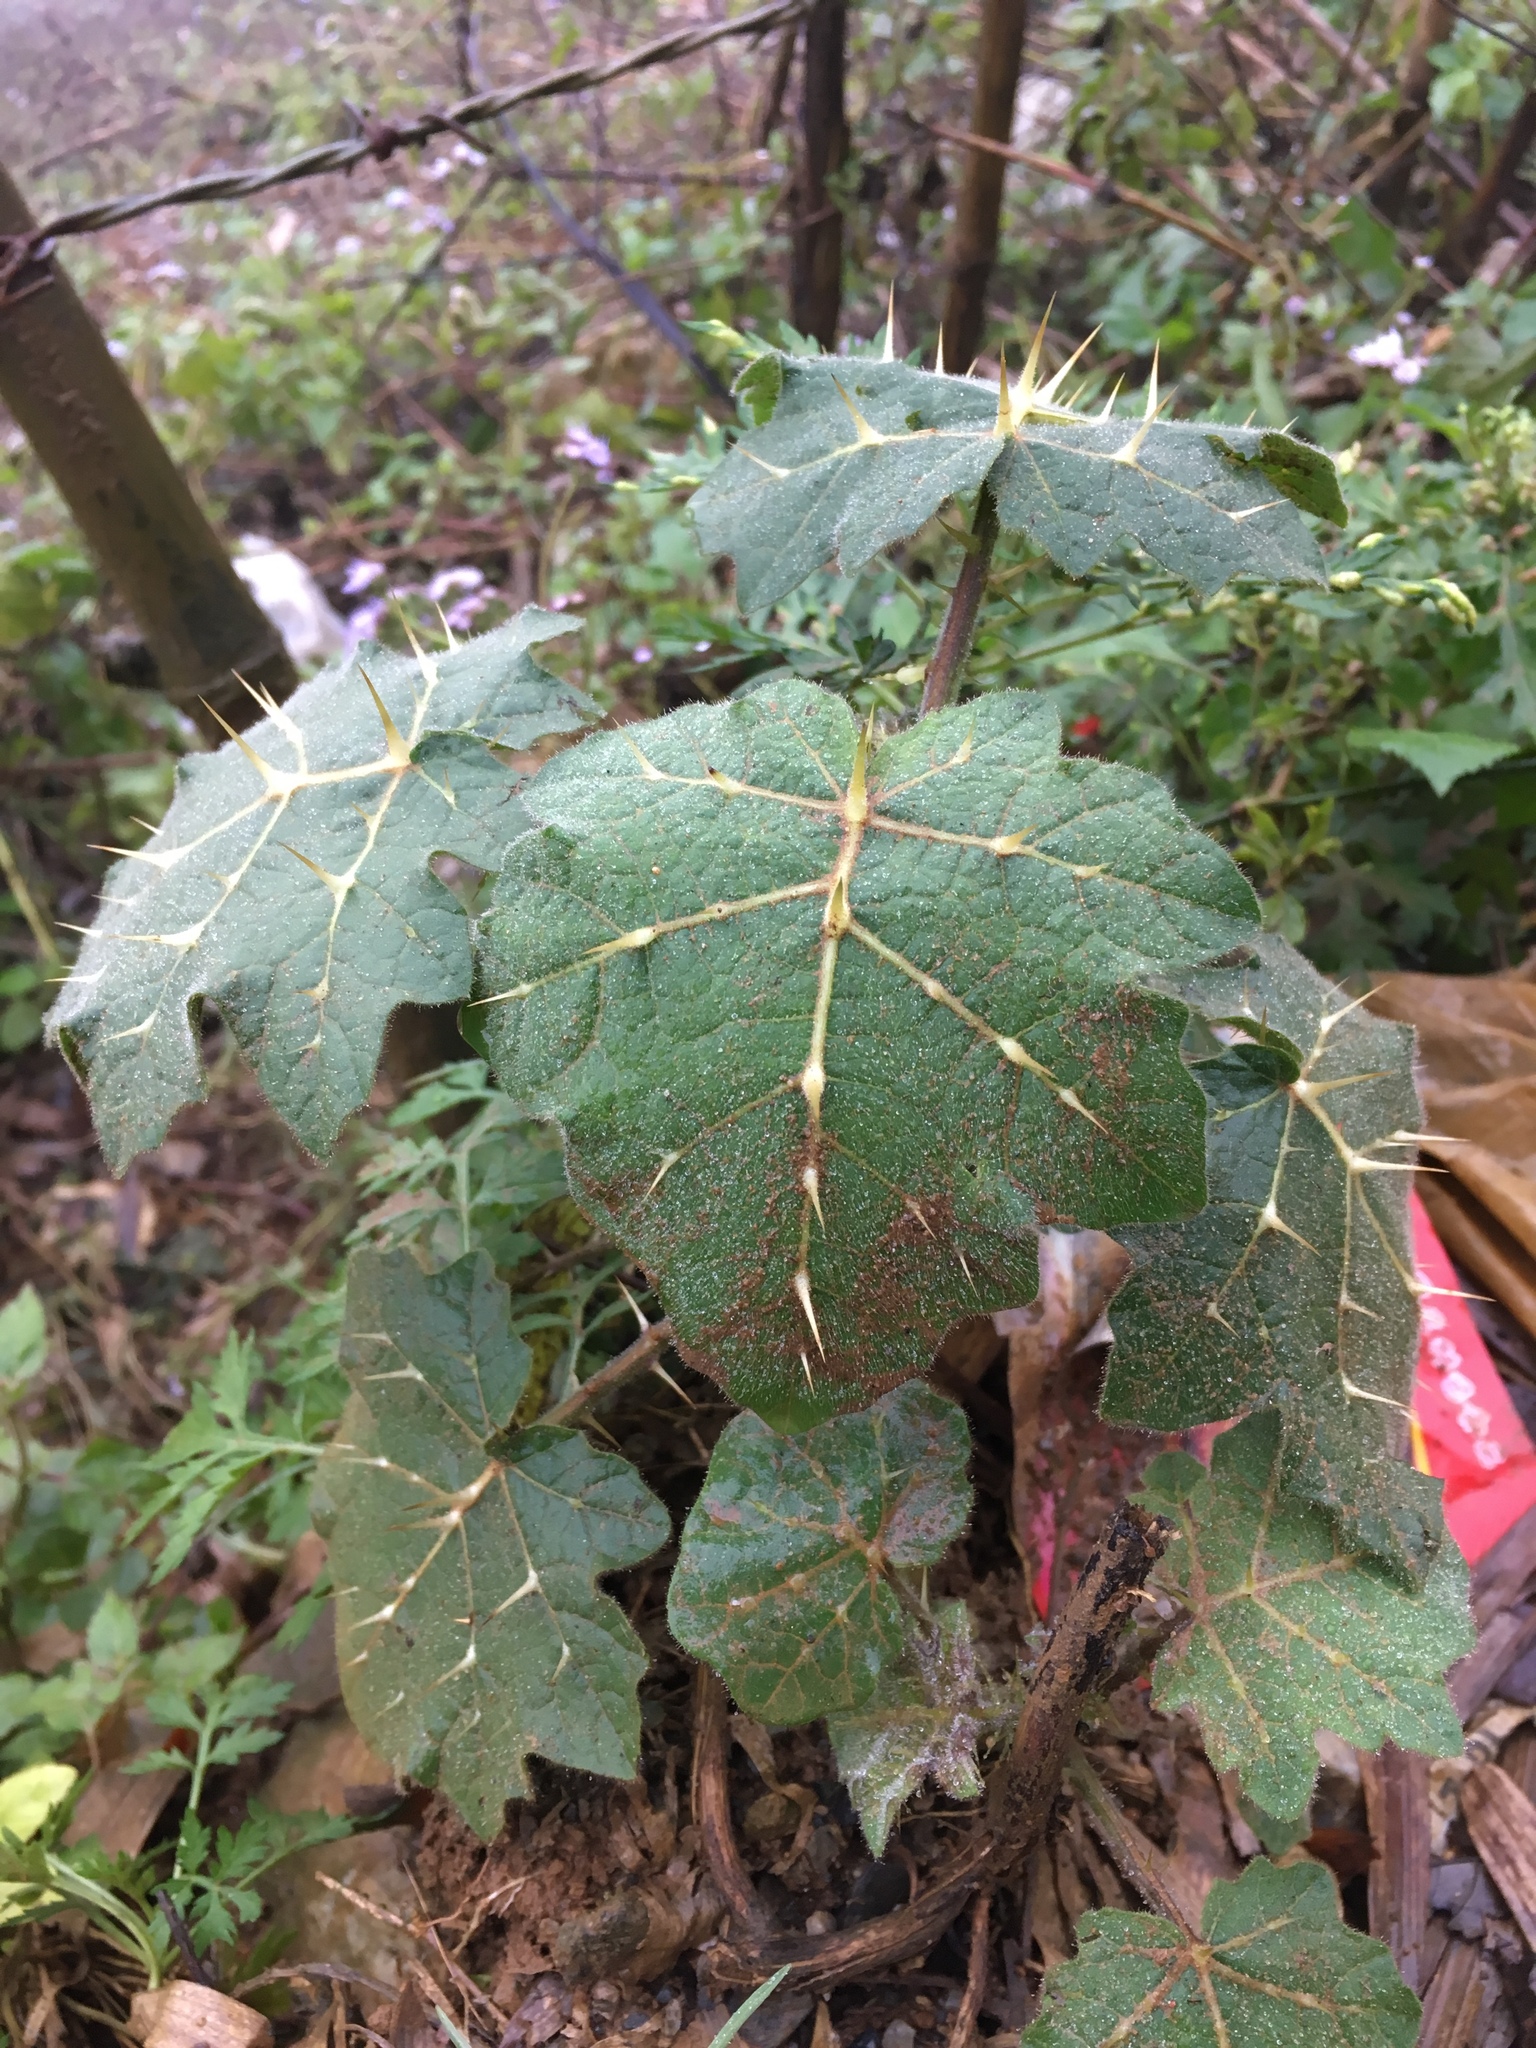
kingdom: Plantae
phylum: Tracheophyta
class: Magnoliopsida
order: Solanales
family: Solanaceae
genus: Solanum
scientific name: Solanum viarum
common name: Tropical soda apple
